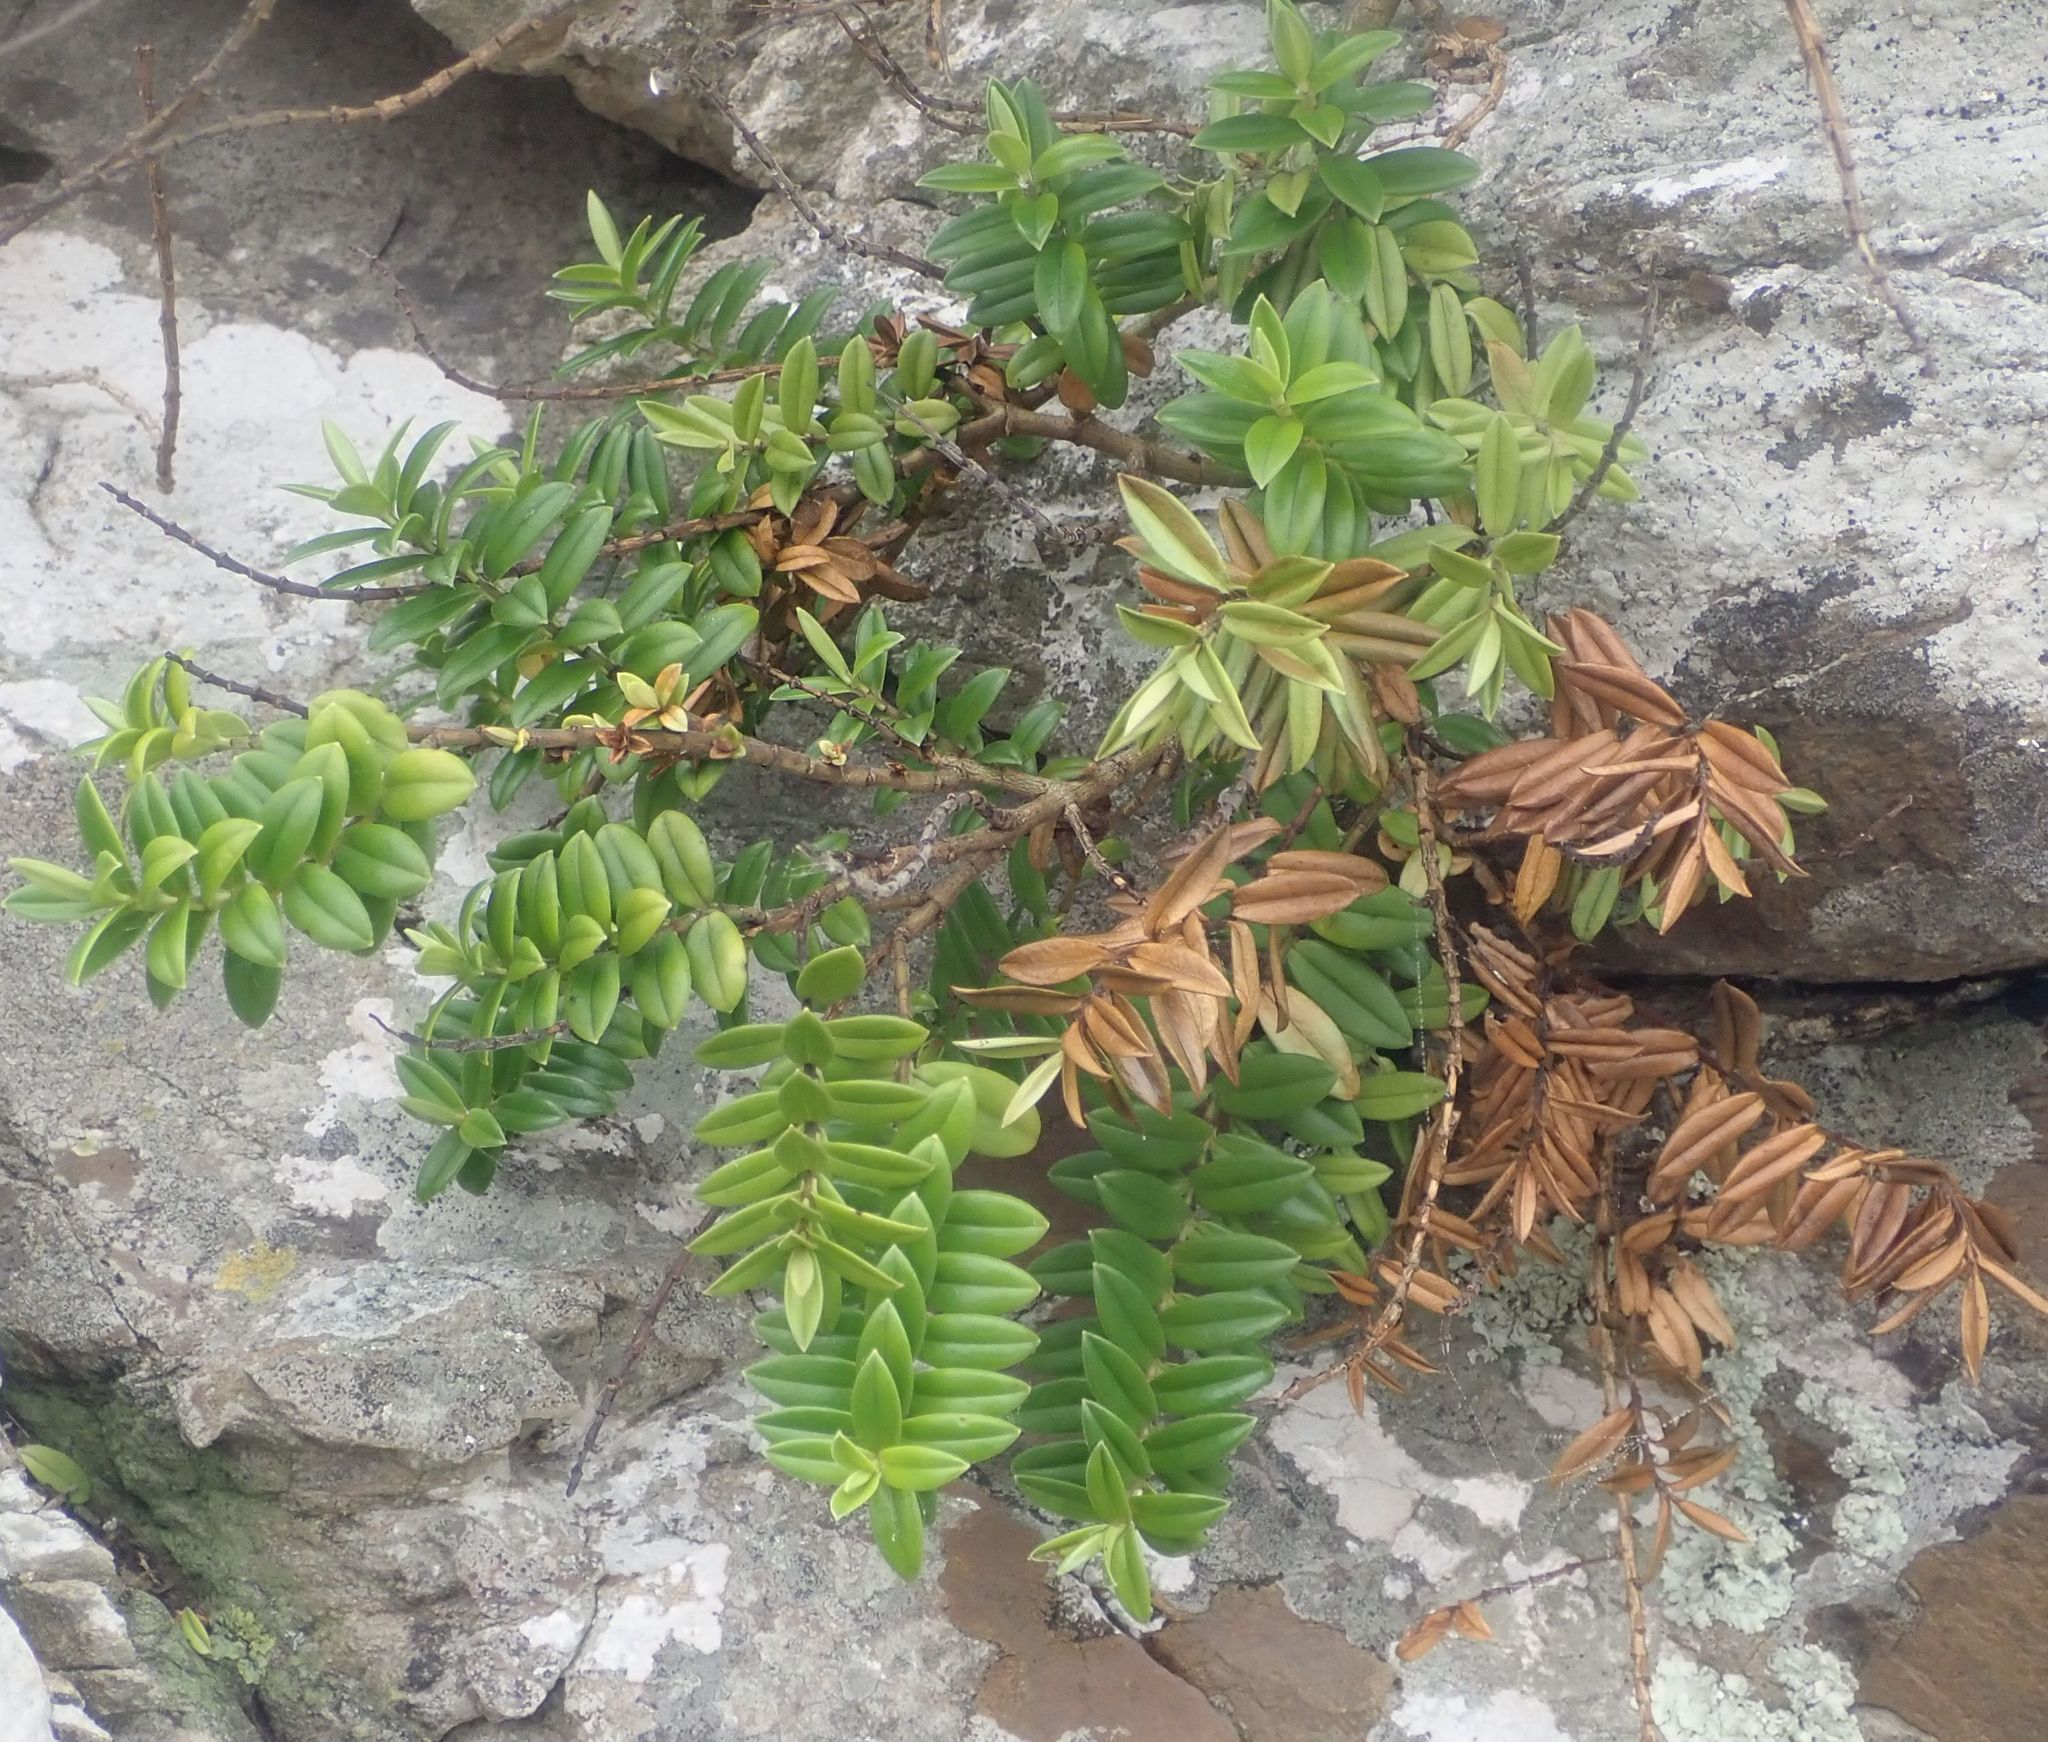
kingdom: Plantae
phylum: Tracheophyta
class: Magnoliopsida
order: Lamiales
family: Plantaginaceae
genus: Veronica
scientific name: Veronica elliptica
